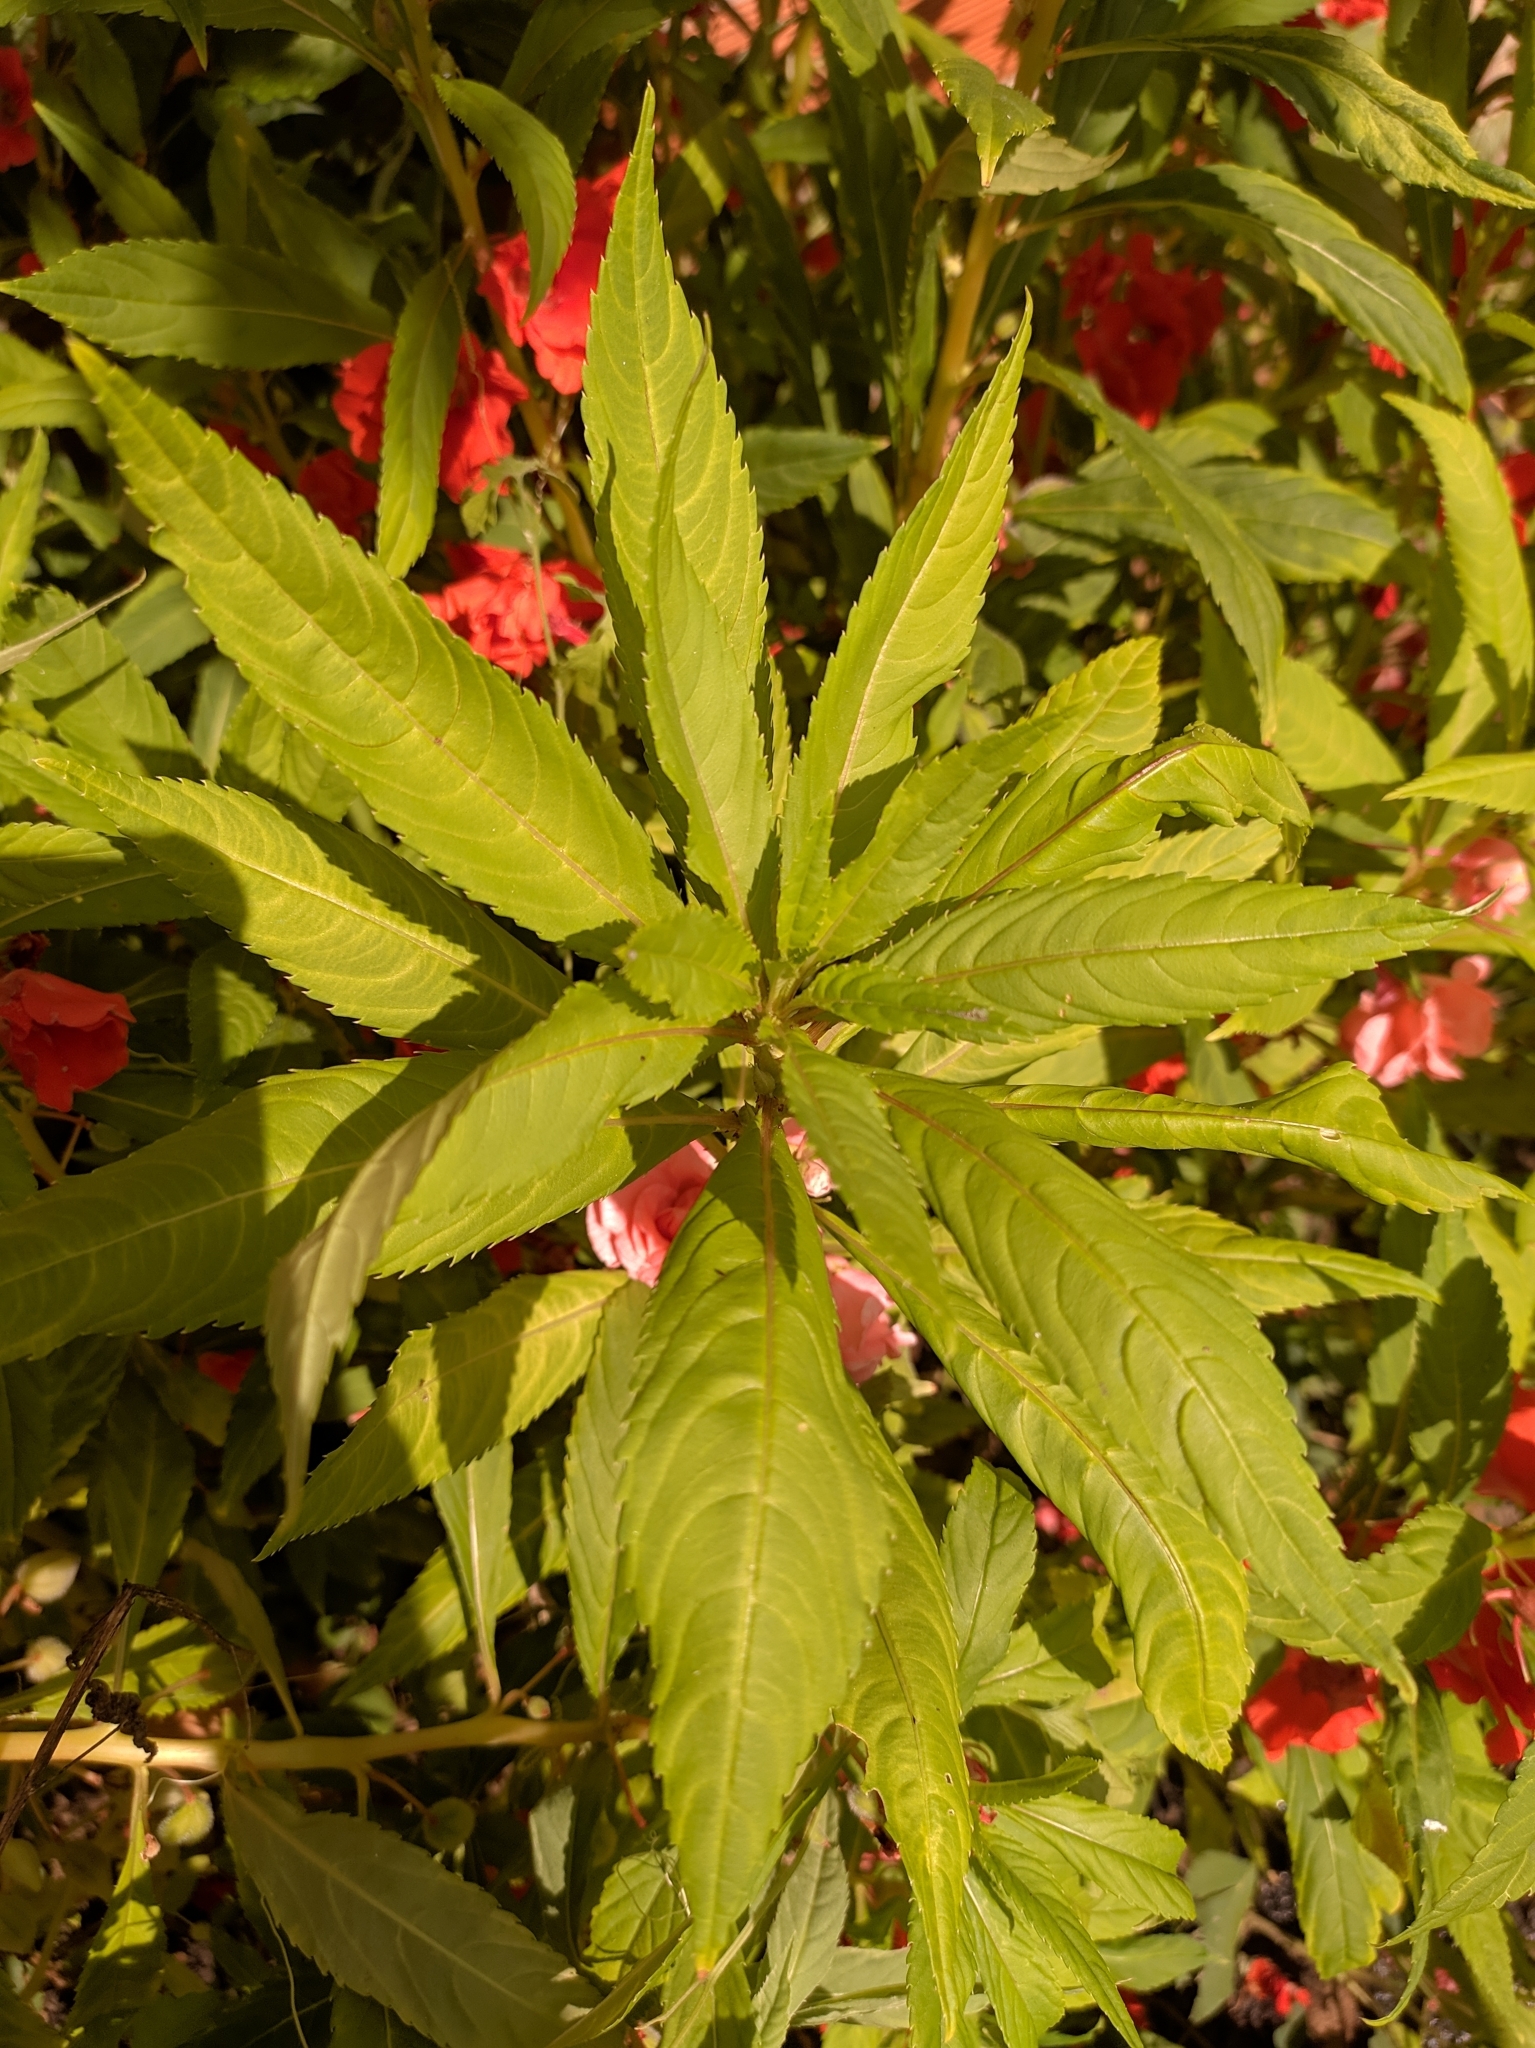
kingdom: Plantae
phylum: Tracheophyta
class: Magnoliopsida
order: Ericales
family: Balsaminaceae
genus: Impatiens
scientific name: Impatiens balsamina
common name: Balsam
